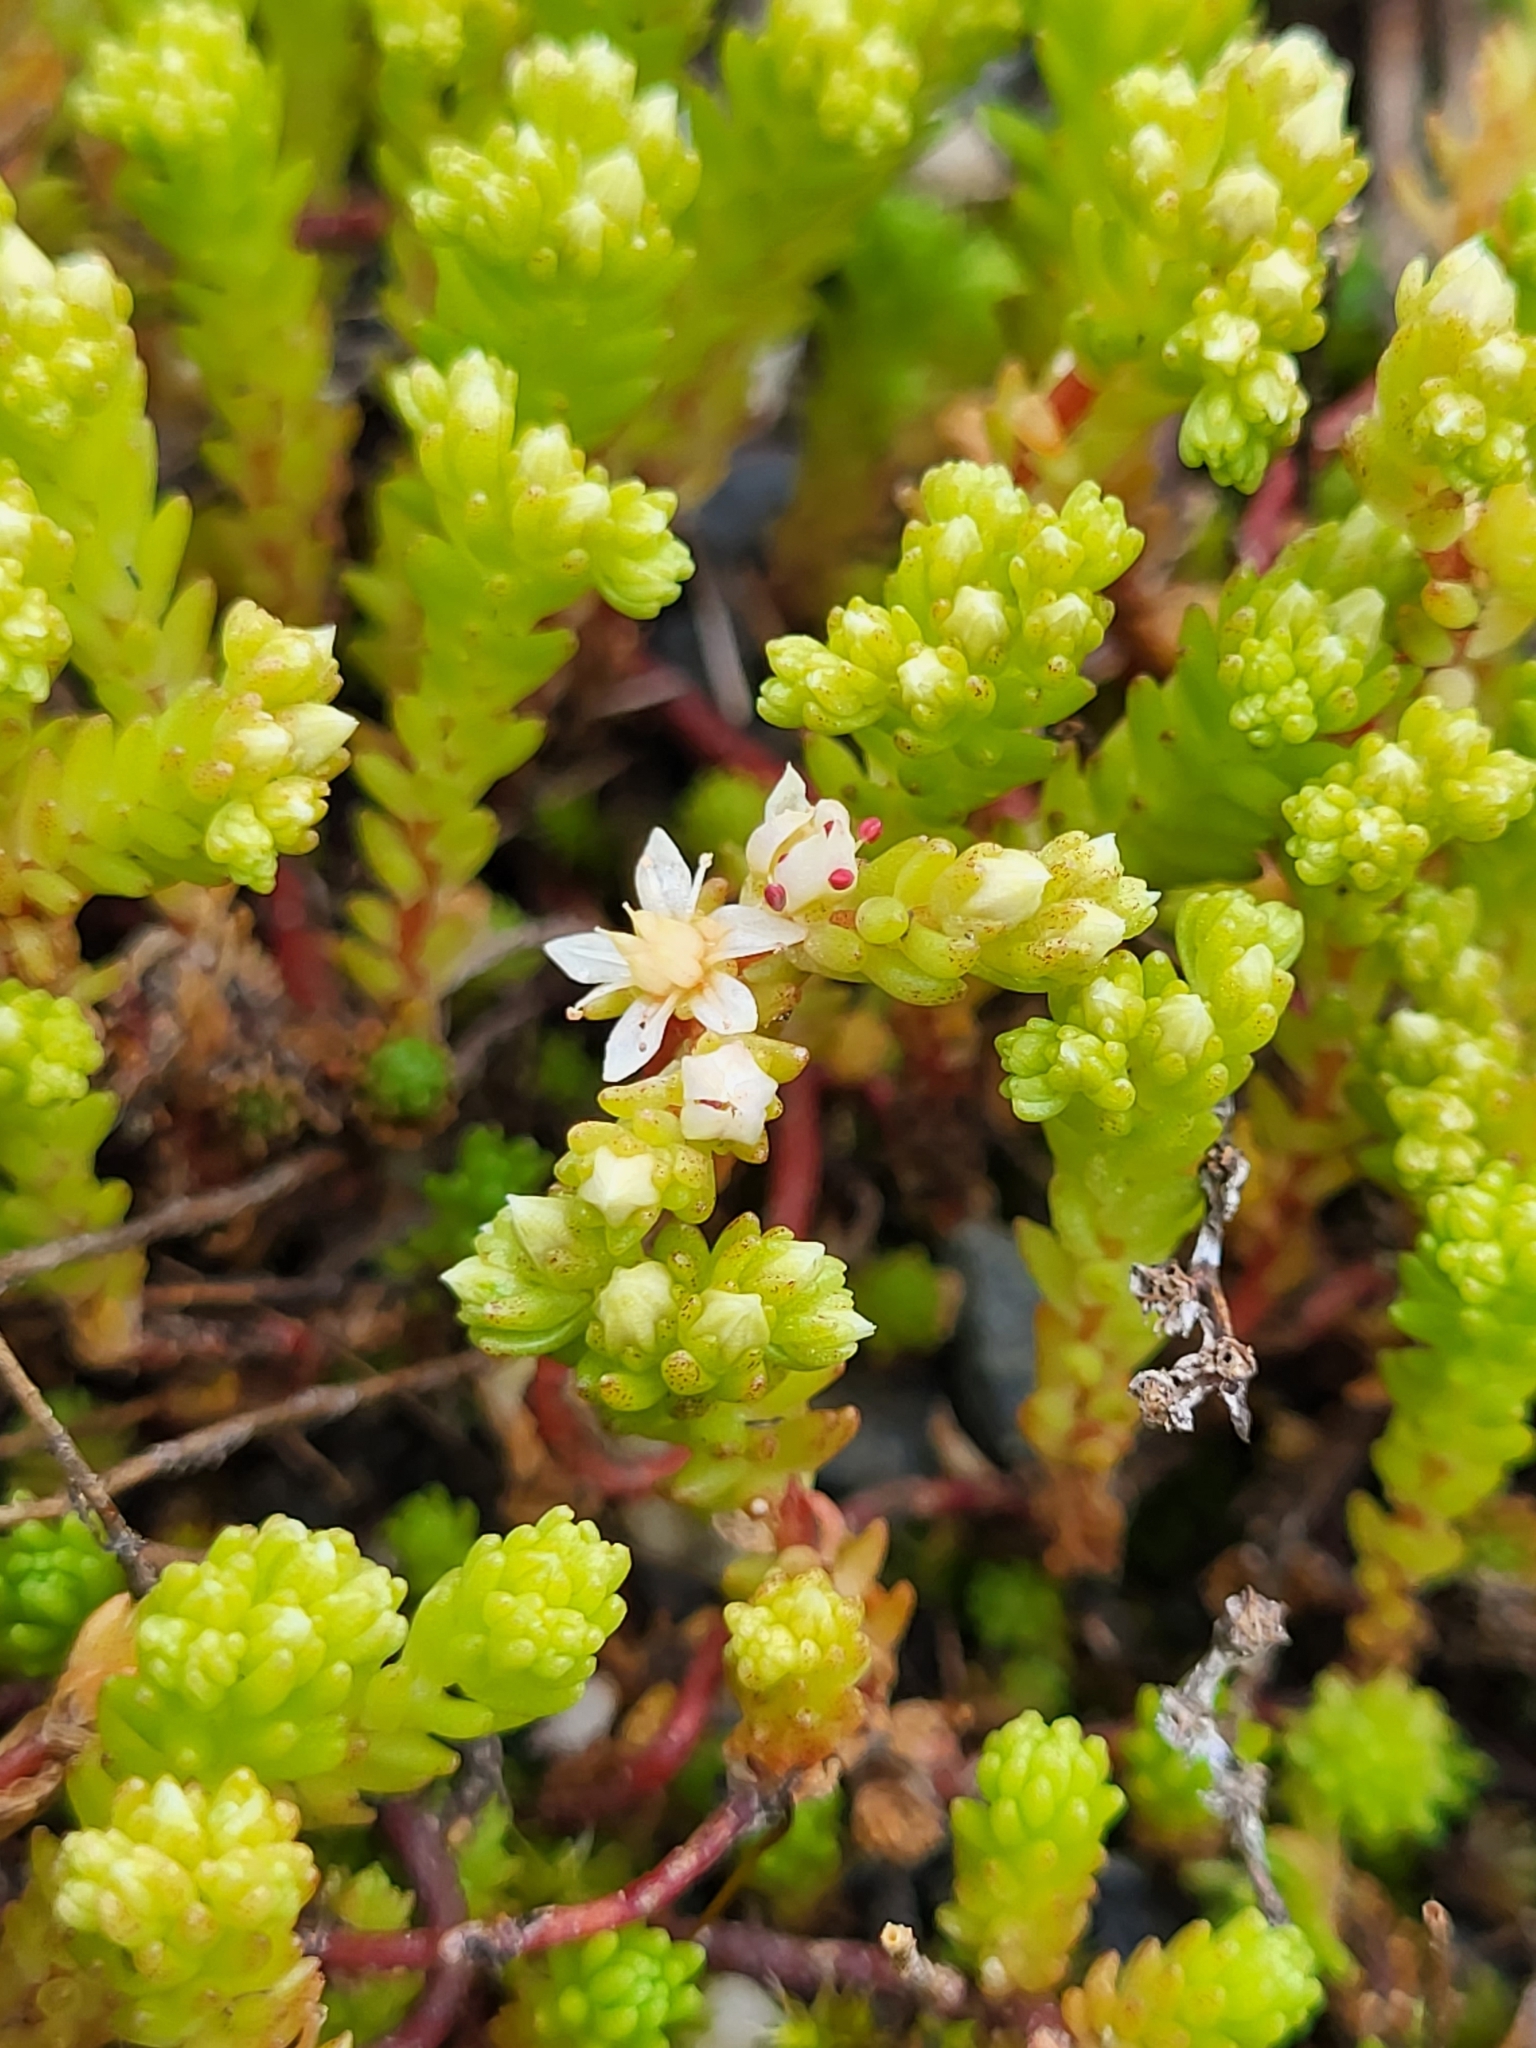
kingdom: Plantae
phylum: Tracheophyta
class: Magnoliopsida
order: Saxifragales
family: Crassulaceae
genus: Sedum
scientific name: Sedum gracile
